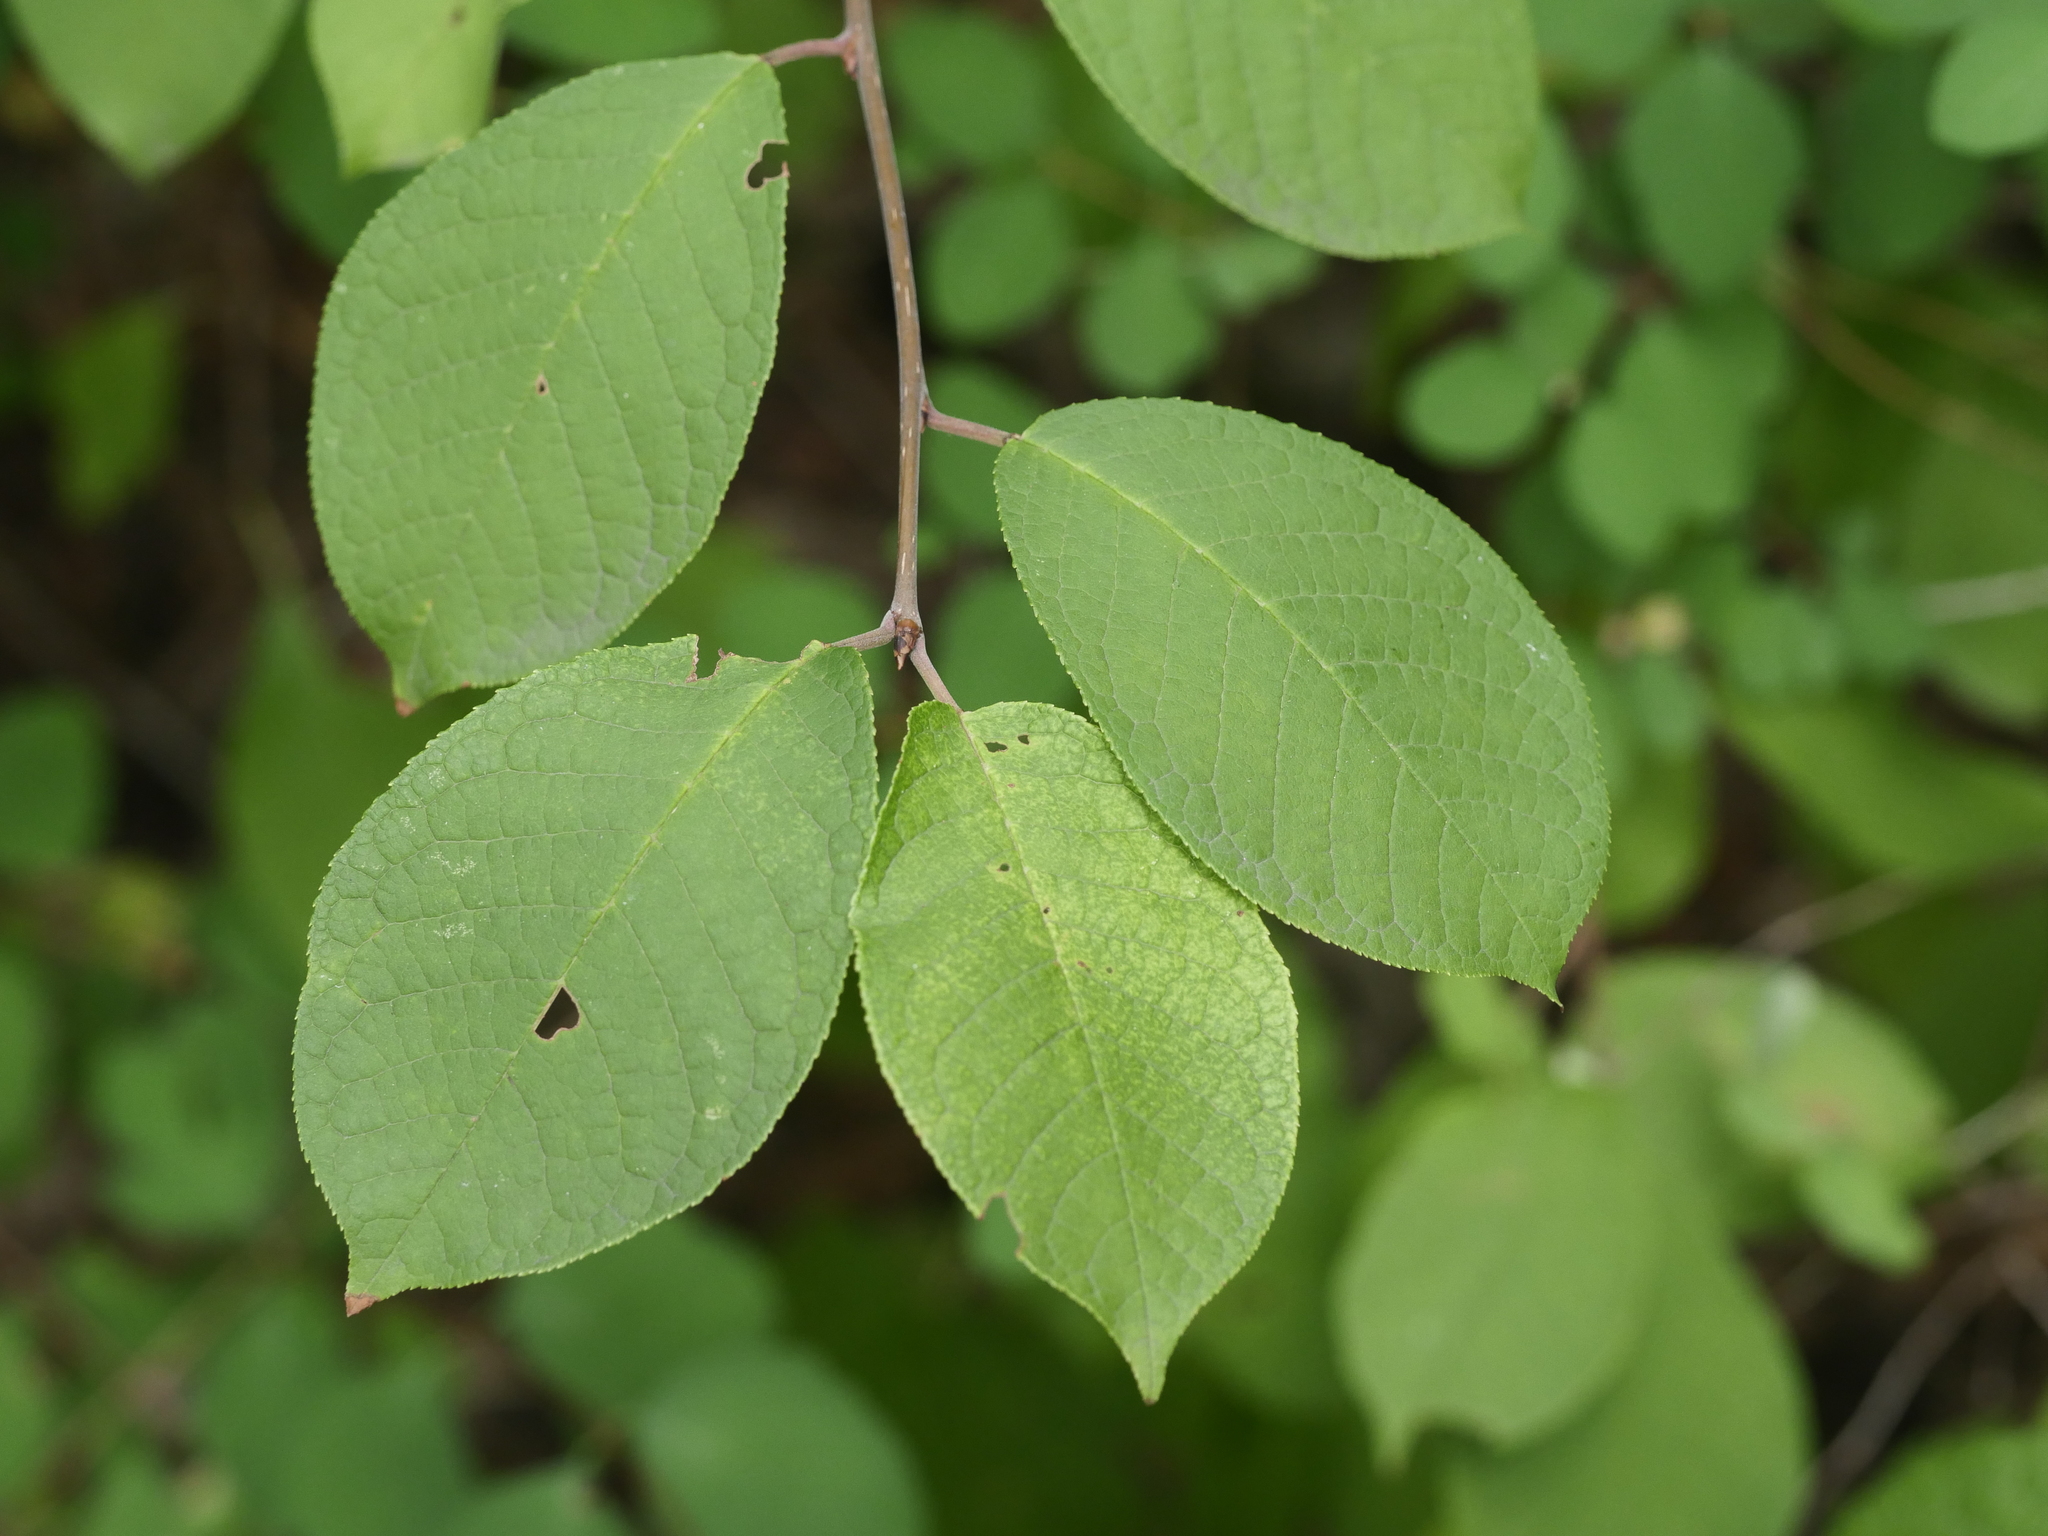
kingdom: Plantae
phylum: Tracheophyta
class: Magnoliopsida
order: Rosales
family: Rosaceae
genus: Prunus
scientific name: Prunus padus
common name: Bird cherry
